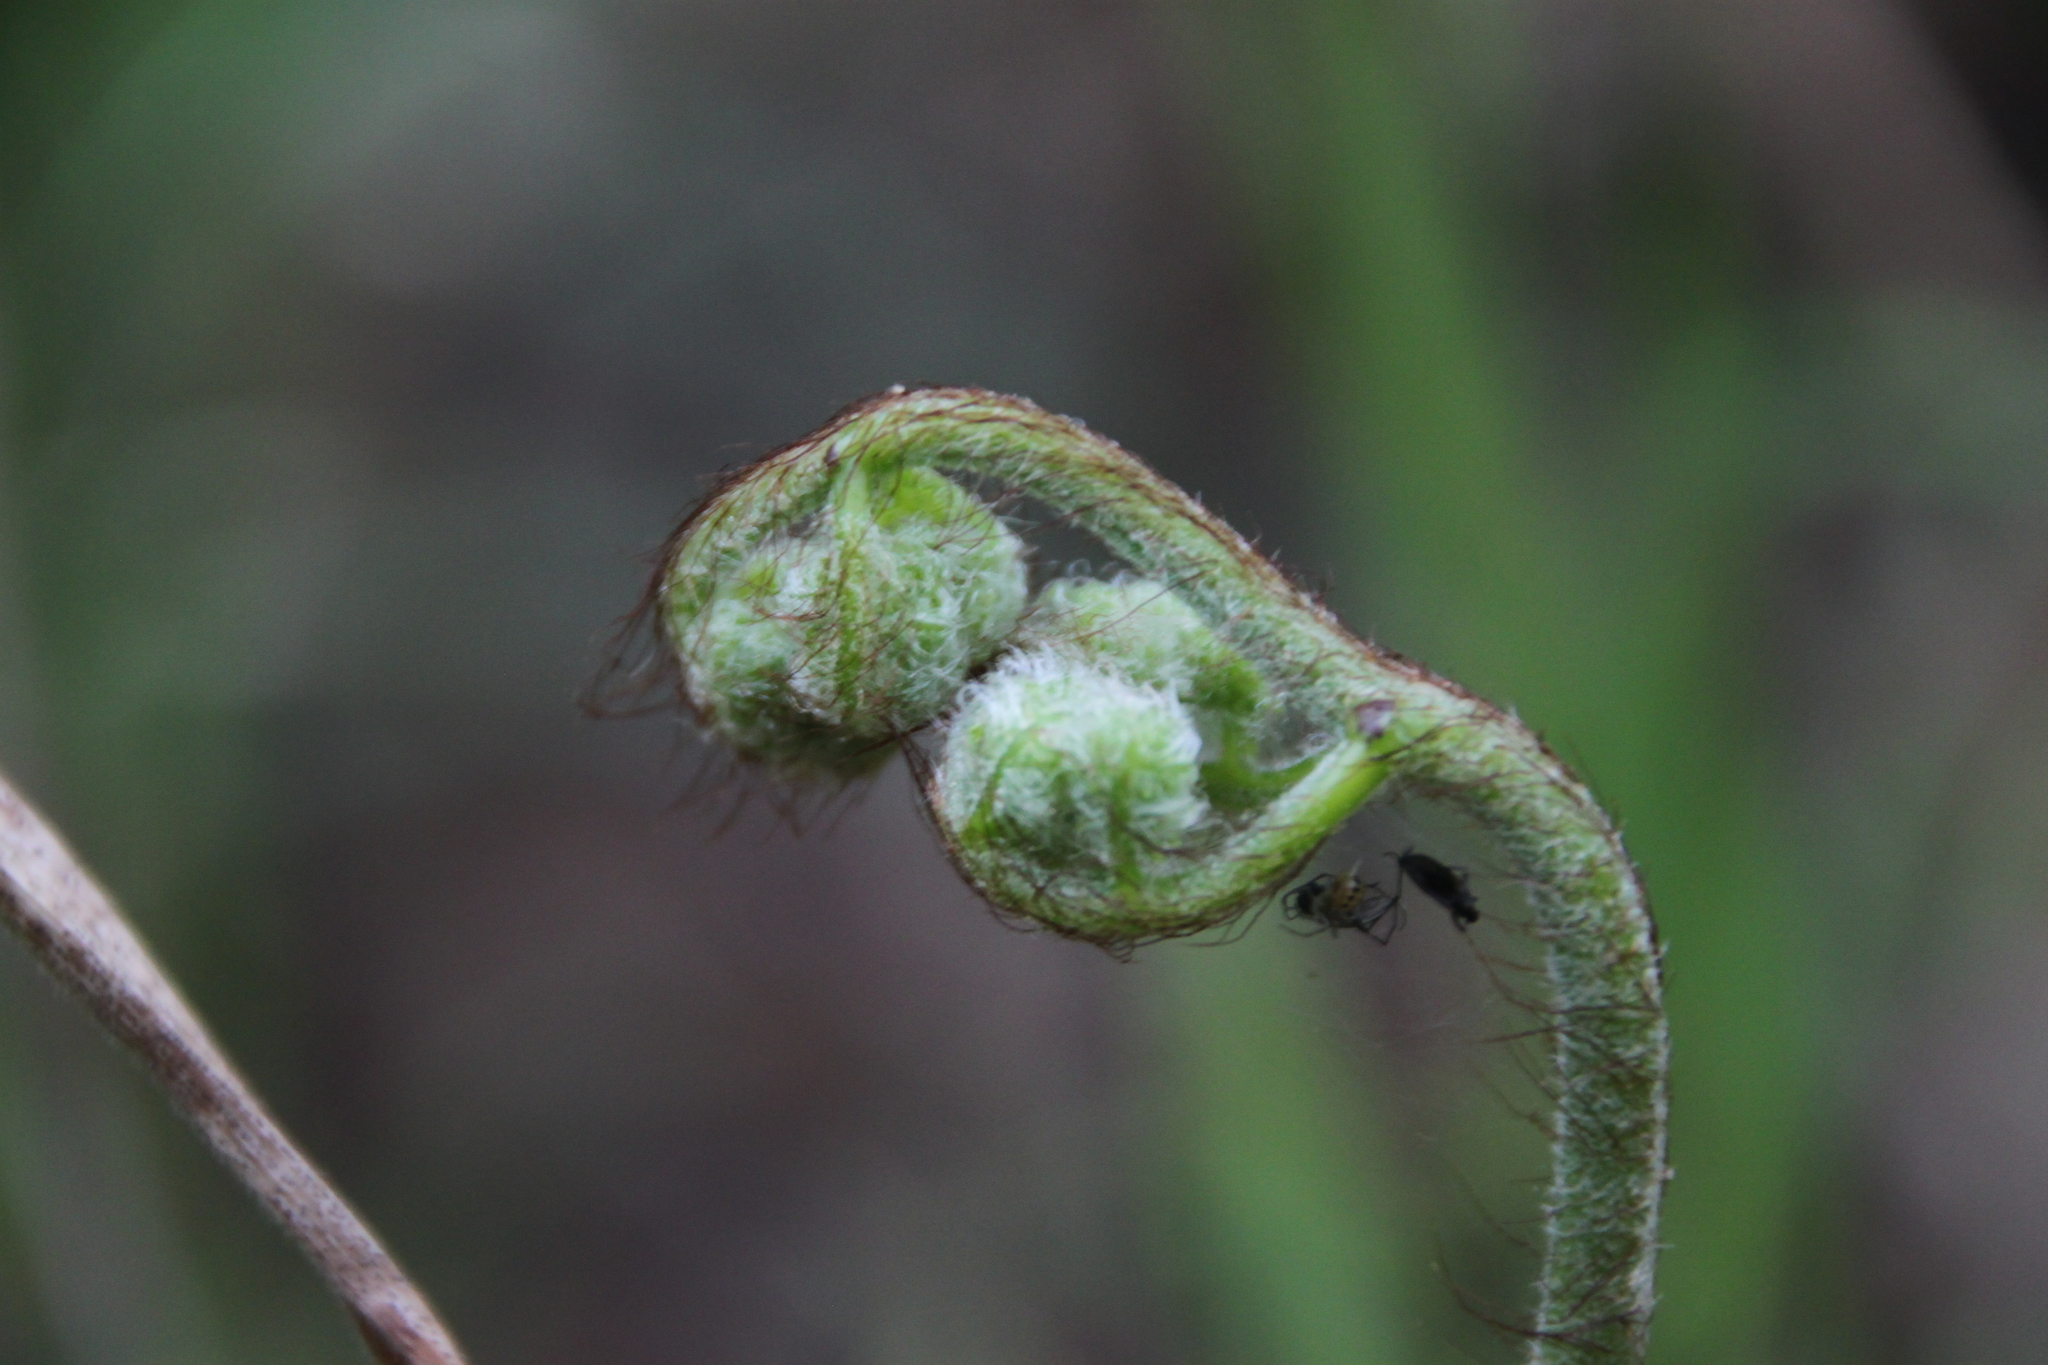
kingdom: Plantae
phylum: Tracheophyta
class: Polypodiopsida
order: Polypodiales
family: Dennstaedtiaceae
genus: Pteridium
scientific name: Pteridium aquilinum
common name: Bracken
